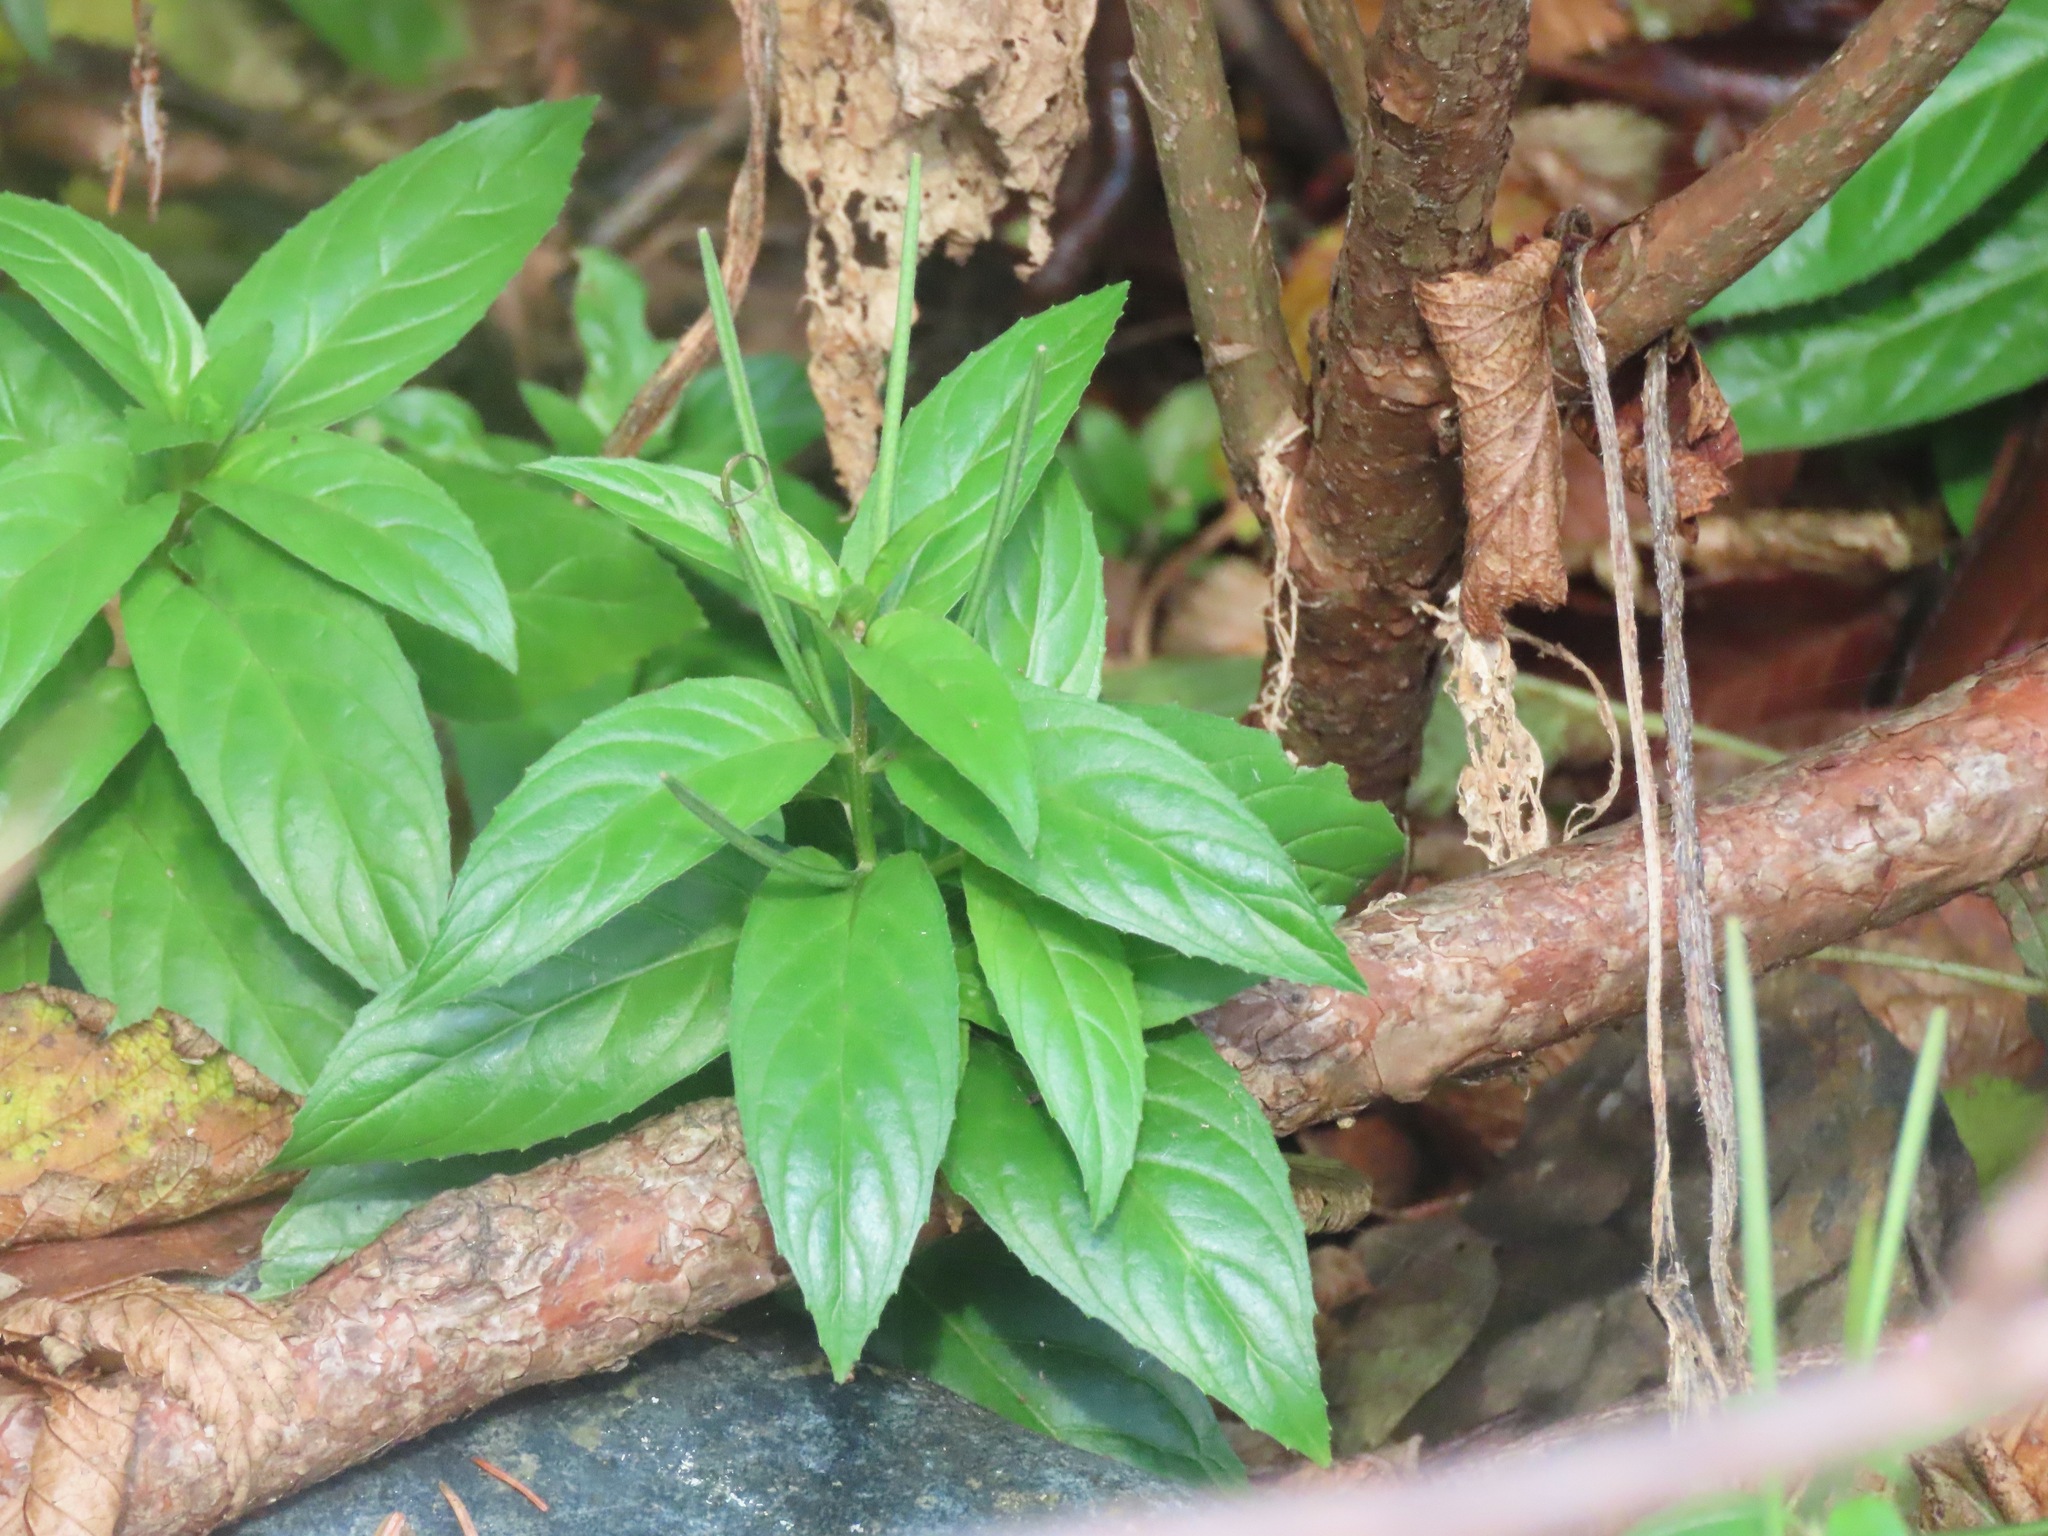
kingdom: Plantae
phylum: Tracheophyta
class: Magnoliopsida
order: Myrtales
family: Onagraceae
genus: Epilobium
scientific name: Epilobium ciliatum
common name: American willowherb
